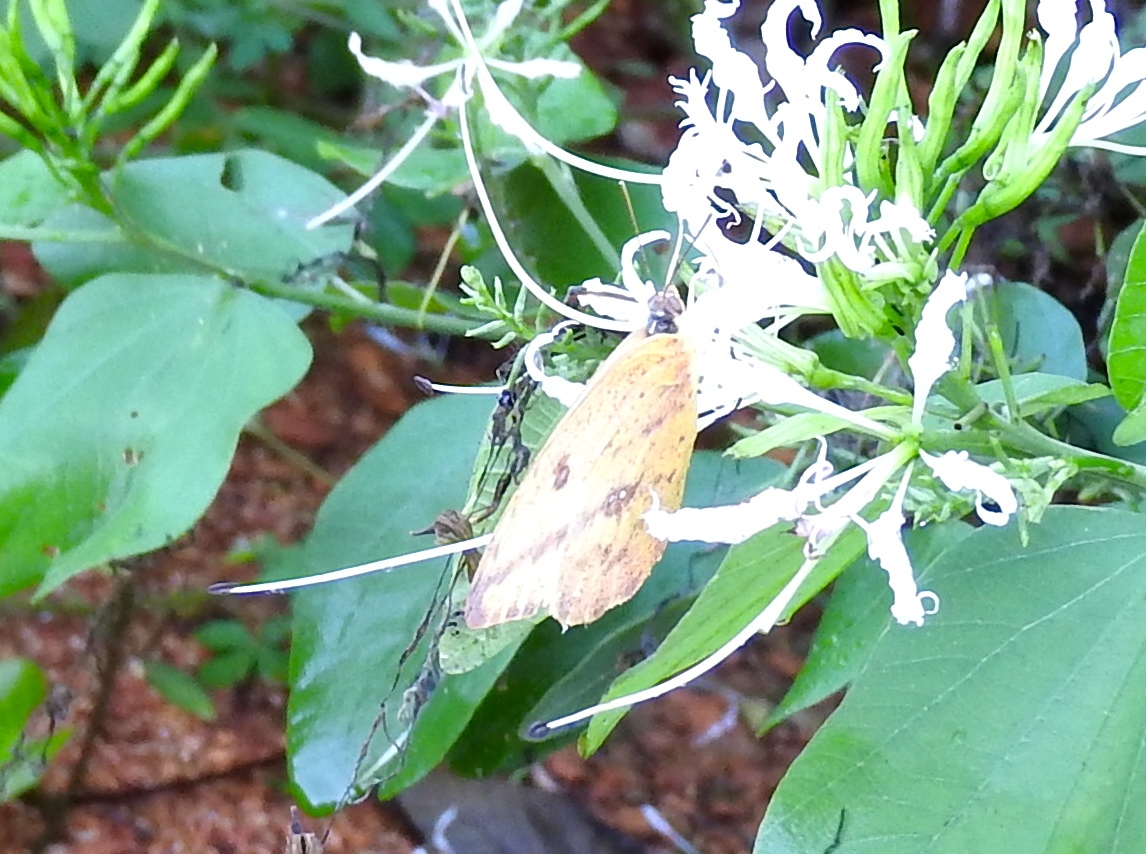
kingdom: Animalia
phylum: Arthropoda
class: Insecta
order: Lepidoptera
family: Pieridae
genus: Phoebis
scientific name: Phoebis agarithe
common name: Large orange sulphur
